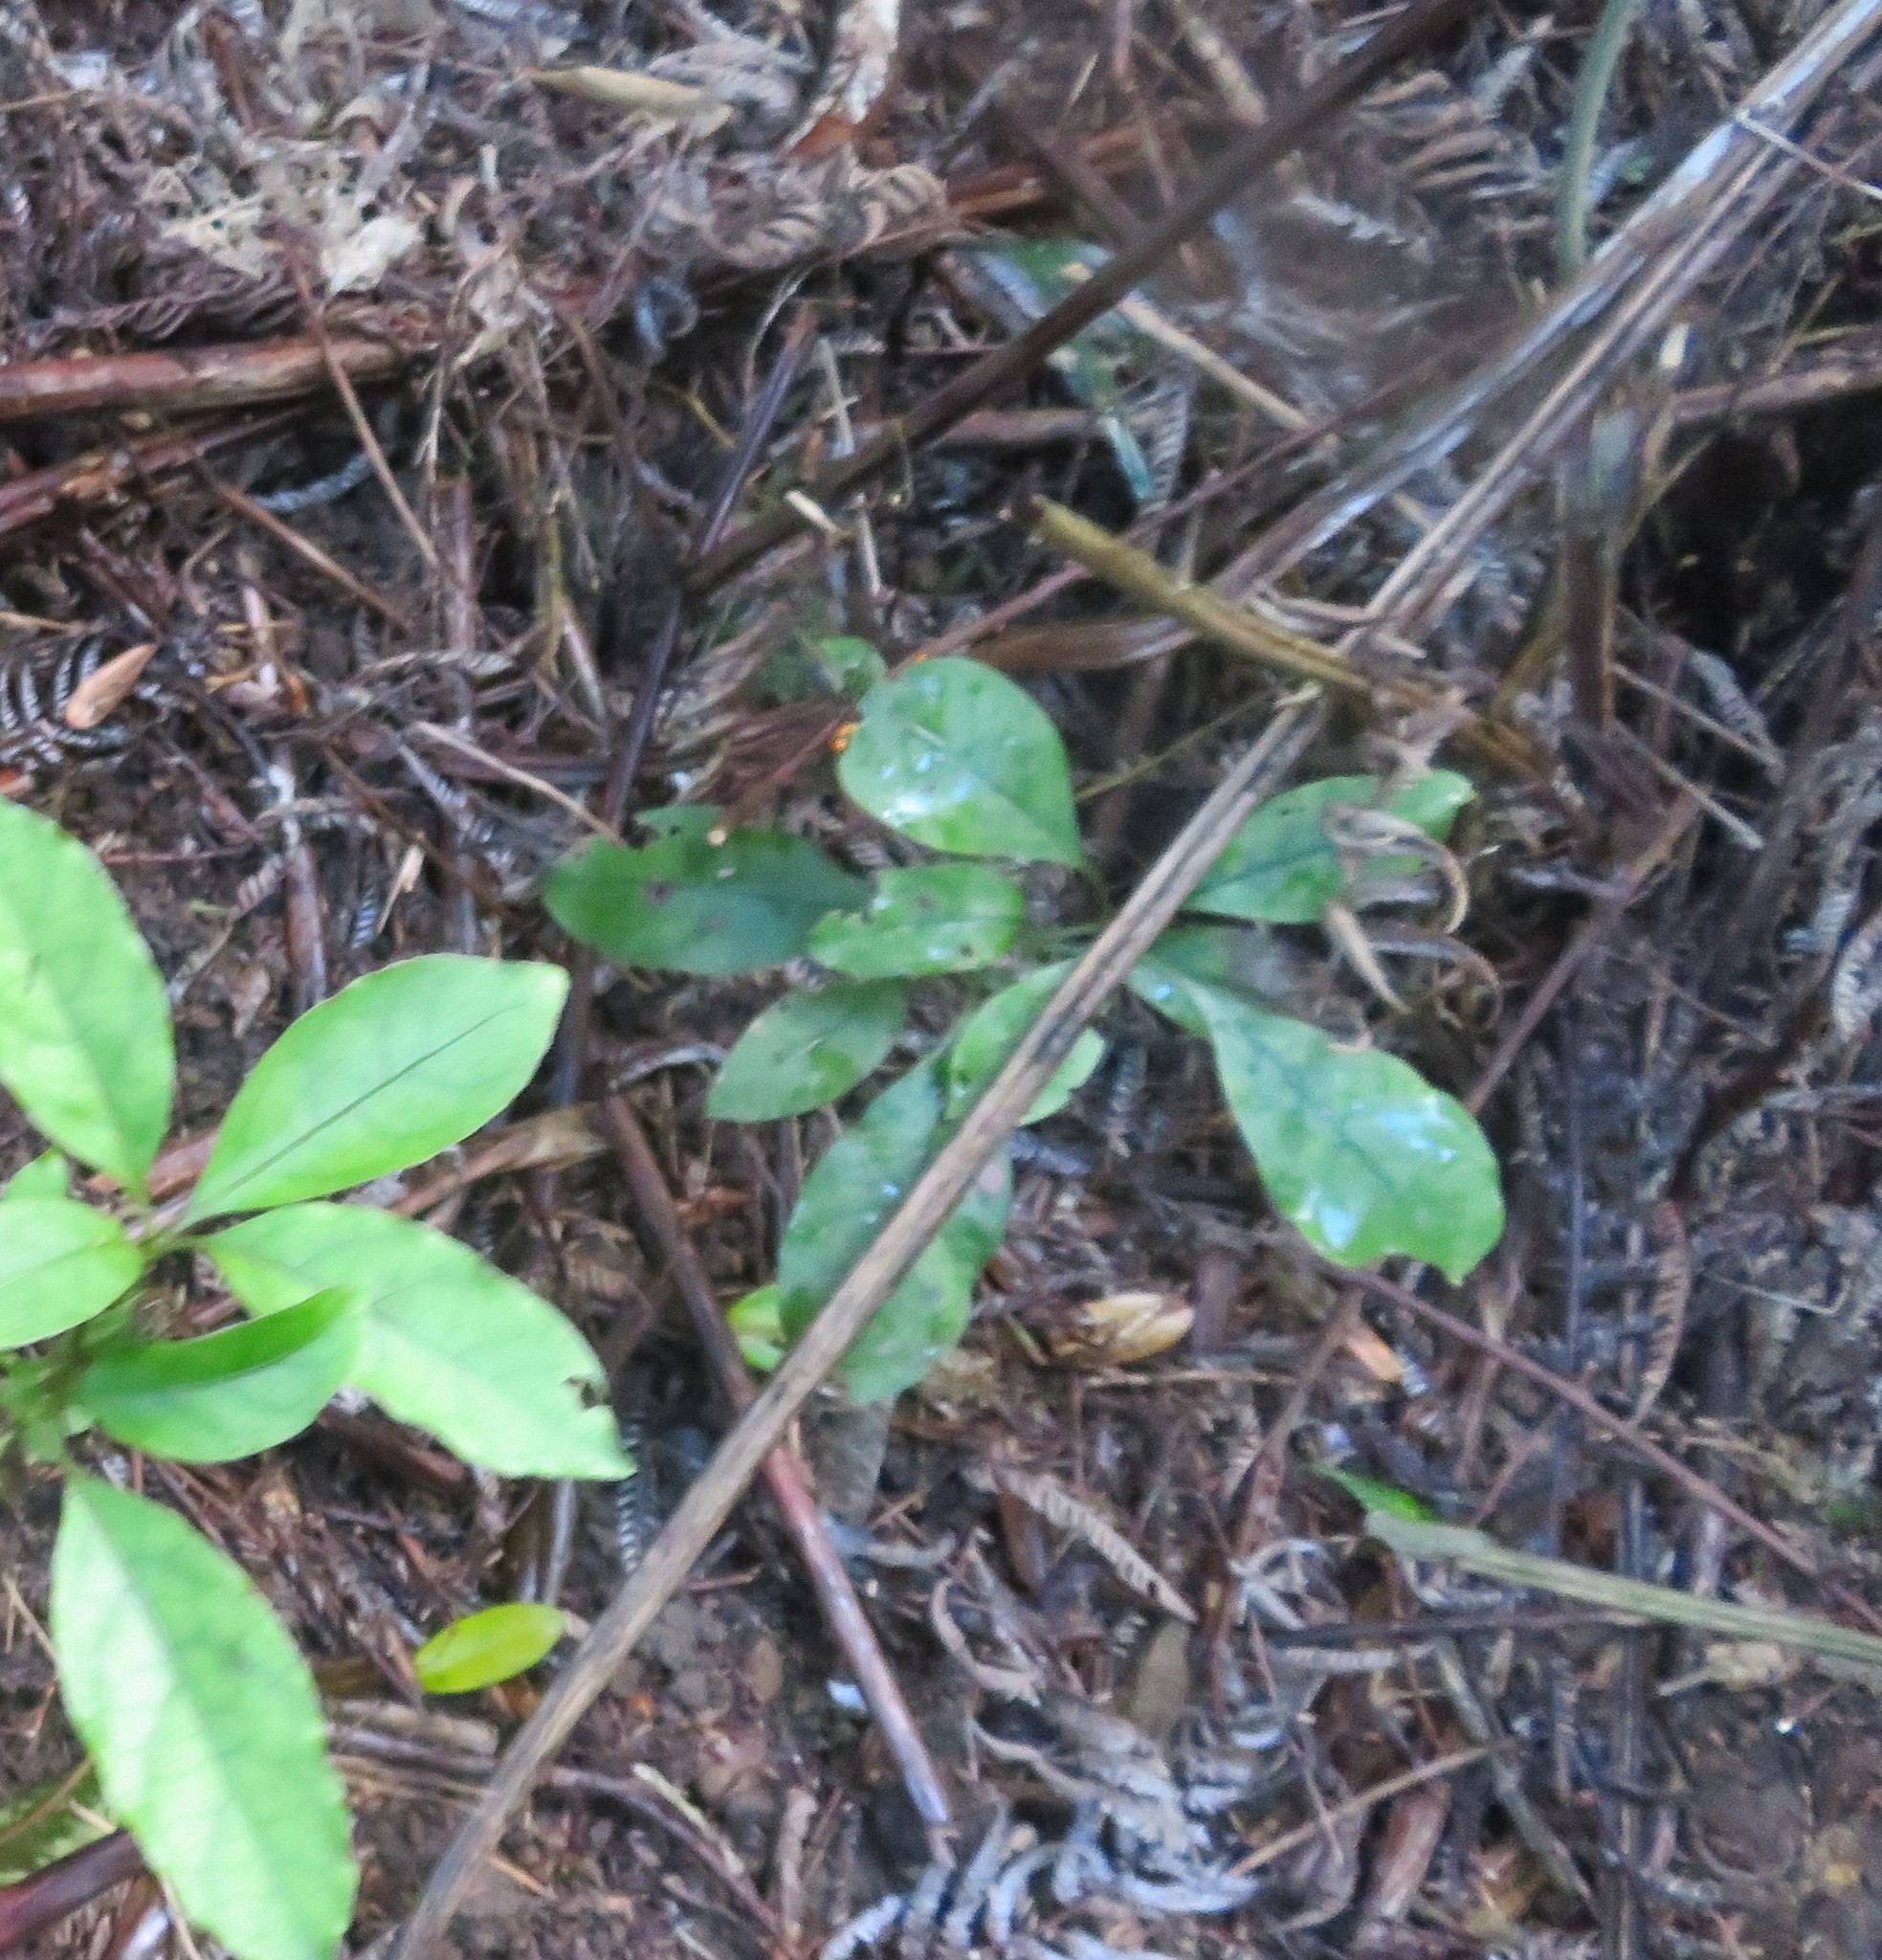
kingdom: Plantae
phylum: Tracheophyta
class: Magnoliopsida
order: Gentianales
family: Rubiaceae
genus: Coprosma
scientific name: Coprosma autumnalis
